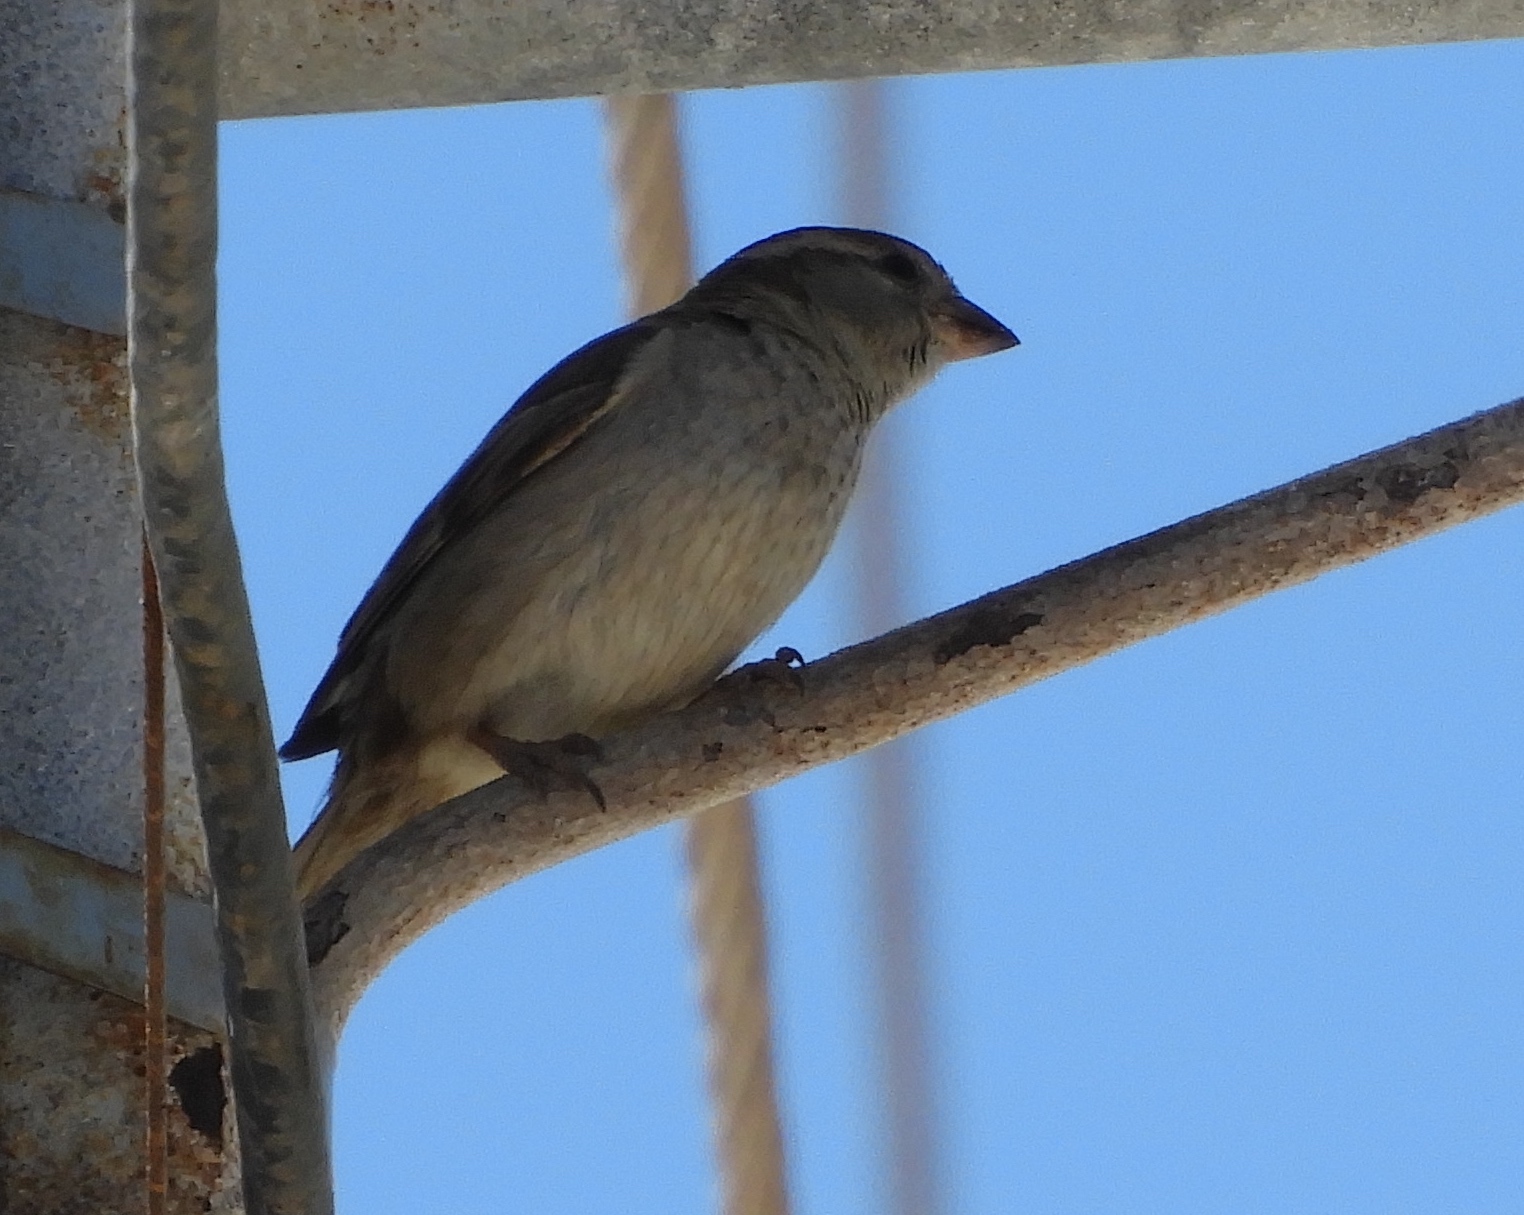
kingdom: Animalia
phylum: Chordata
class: Aves
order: Passeriformes
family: Passeridae
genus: Passer
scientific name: Passer domesticus
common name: House sparrow
